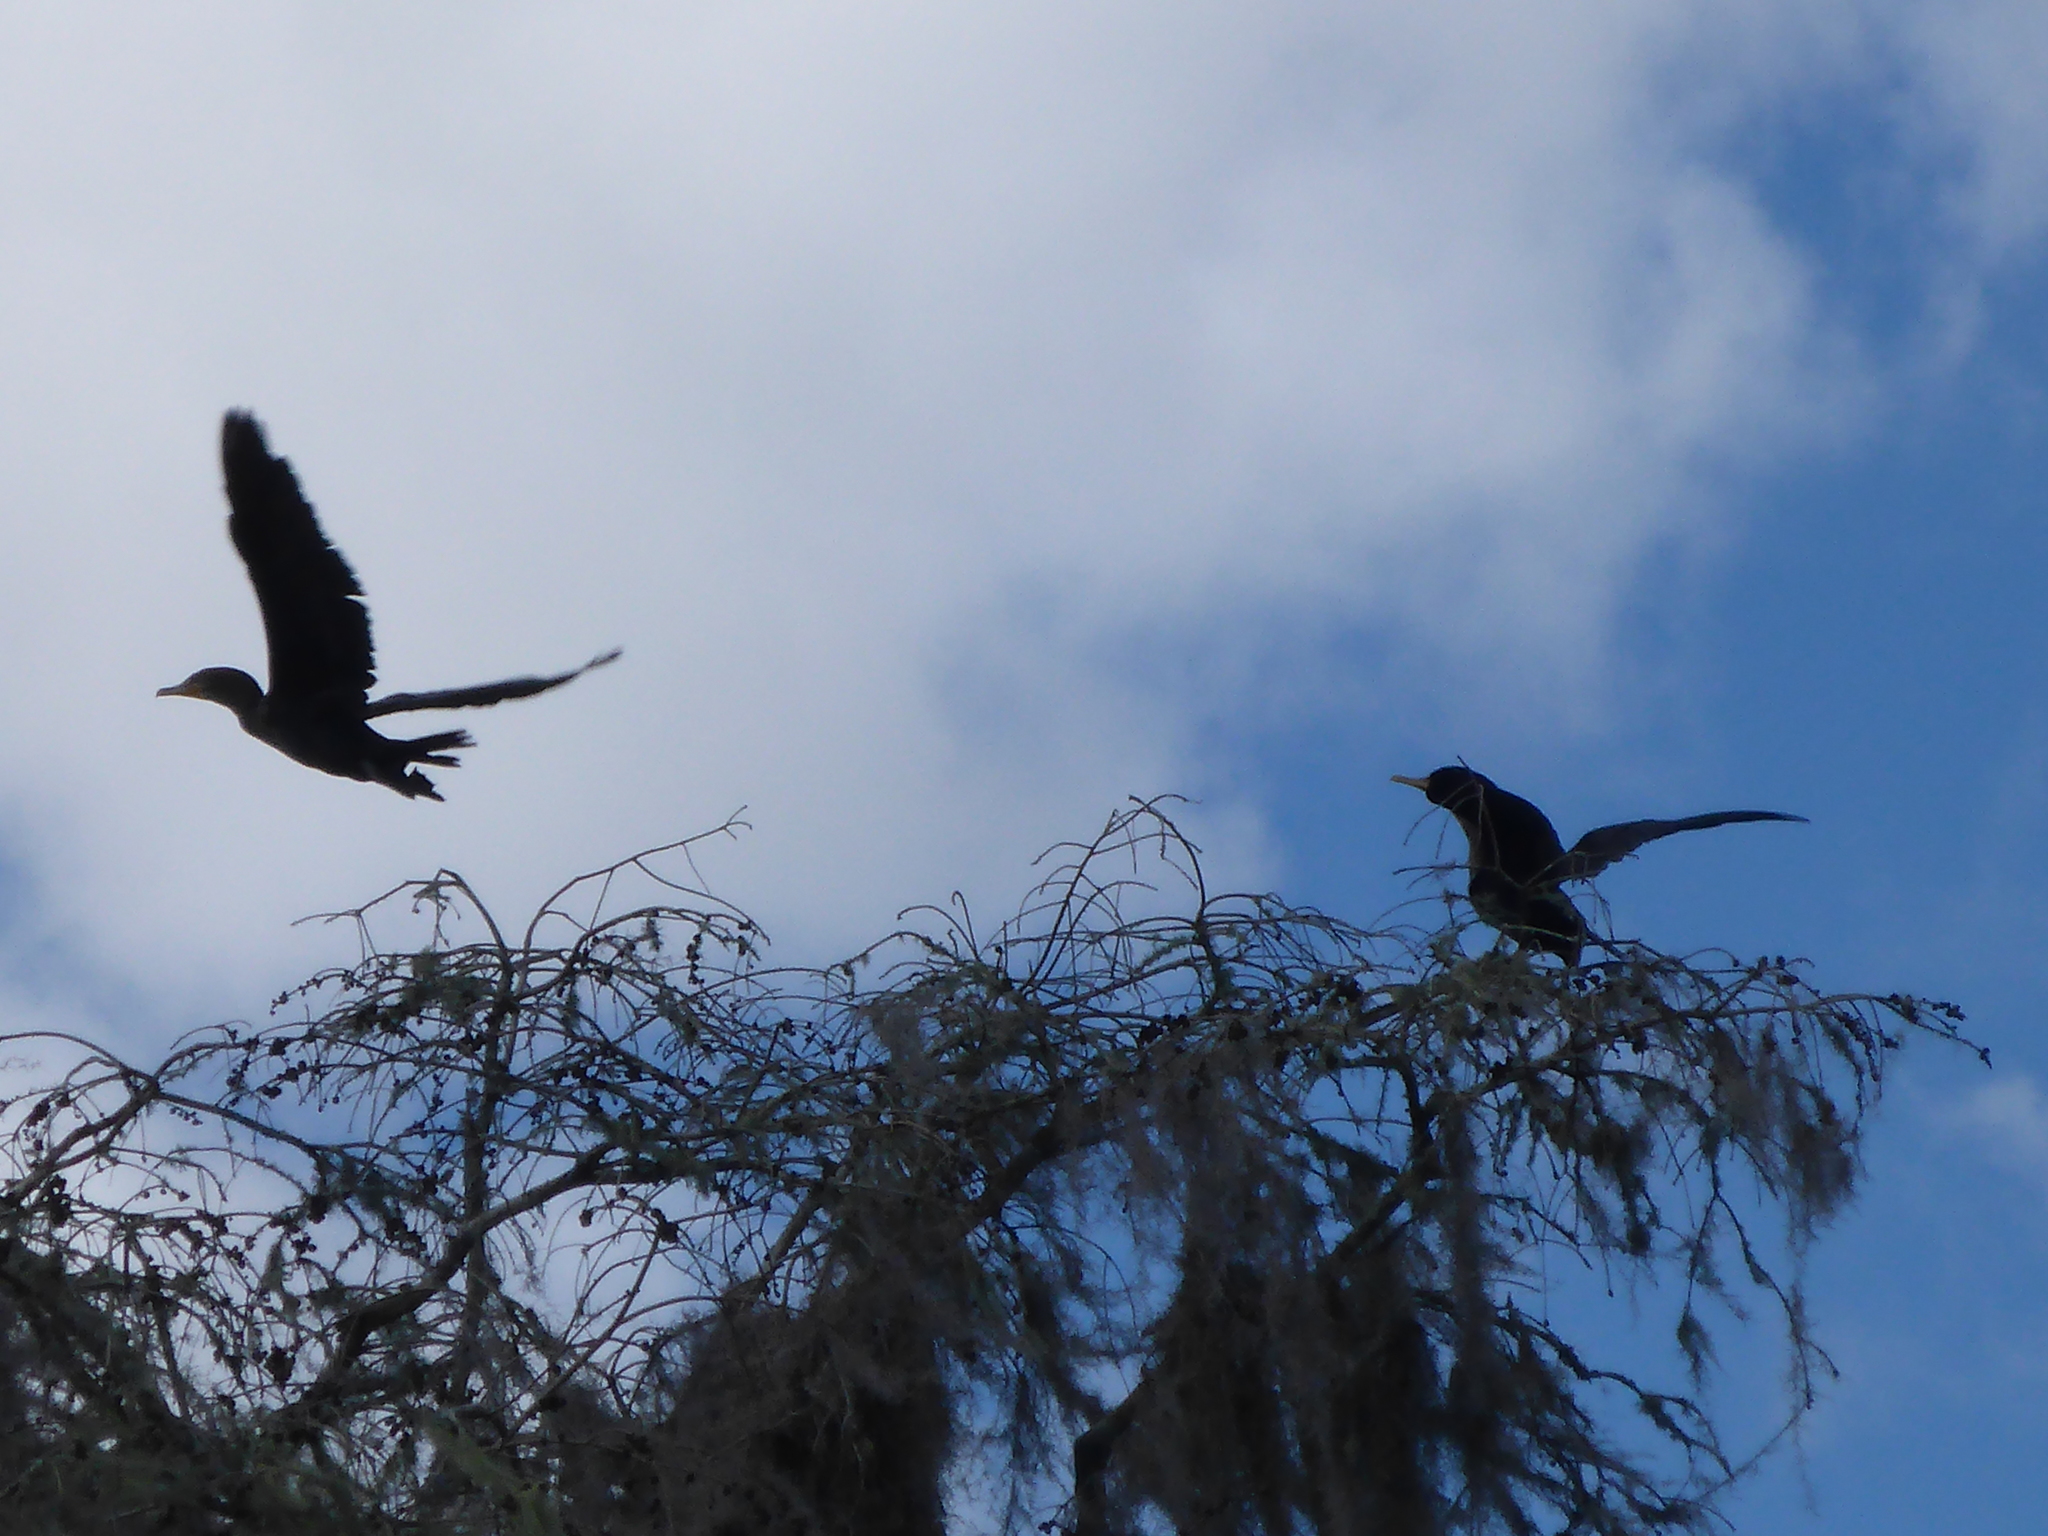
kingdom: Animalia
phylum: Chordata
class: Aves
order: Suliformes
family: Phalacrocoracidae
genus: Phalacrocorax
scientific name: Phalacrocorax auritus
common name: Double-crested cormorant
